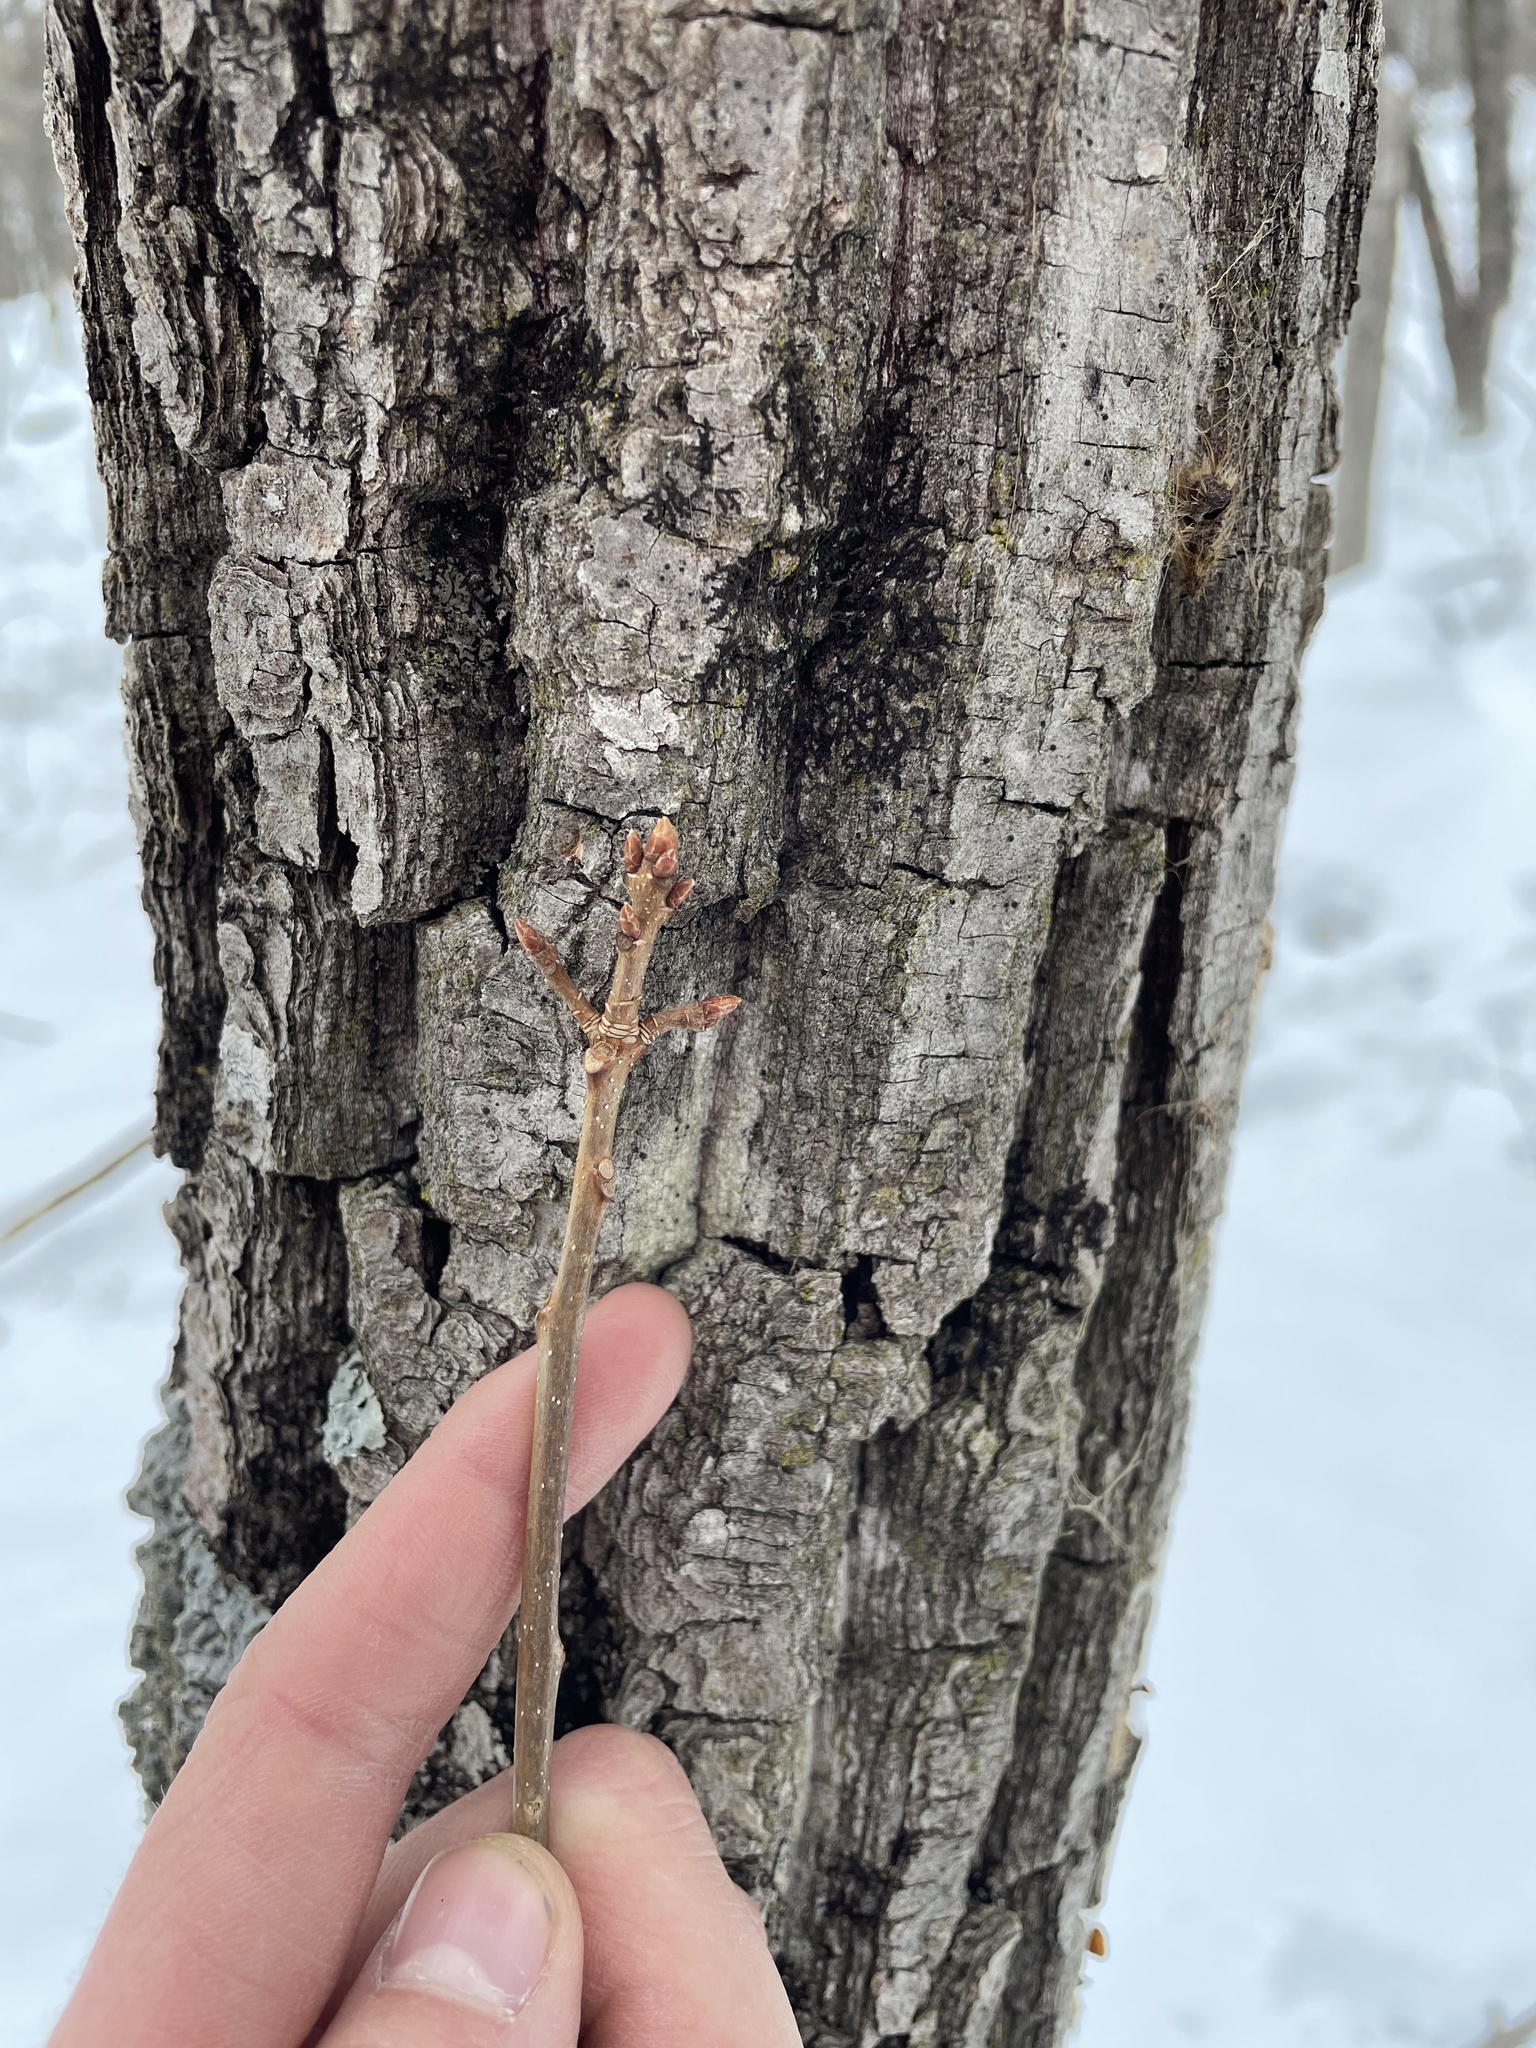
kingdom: Plantae
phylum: Tracheophyta
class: Magnoliopsida
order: Fagales
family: Fagaceae
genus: Quercus
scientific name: Quercus montana
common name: Chestnut oak
